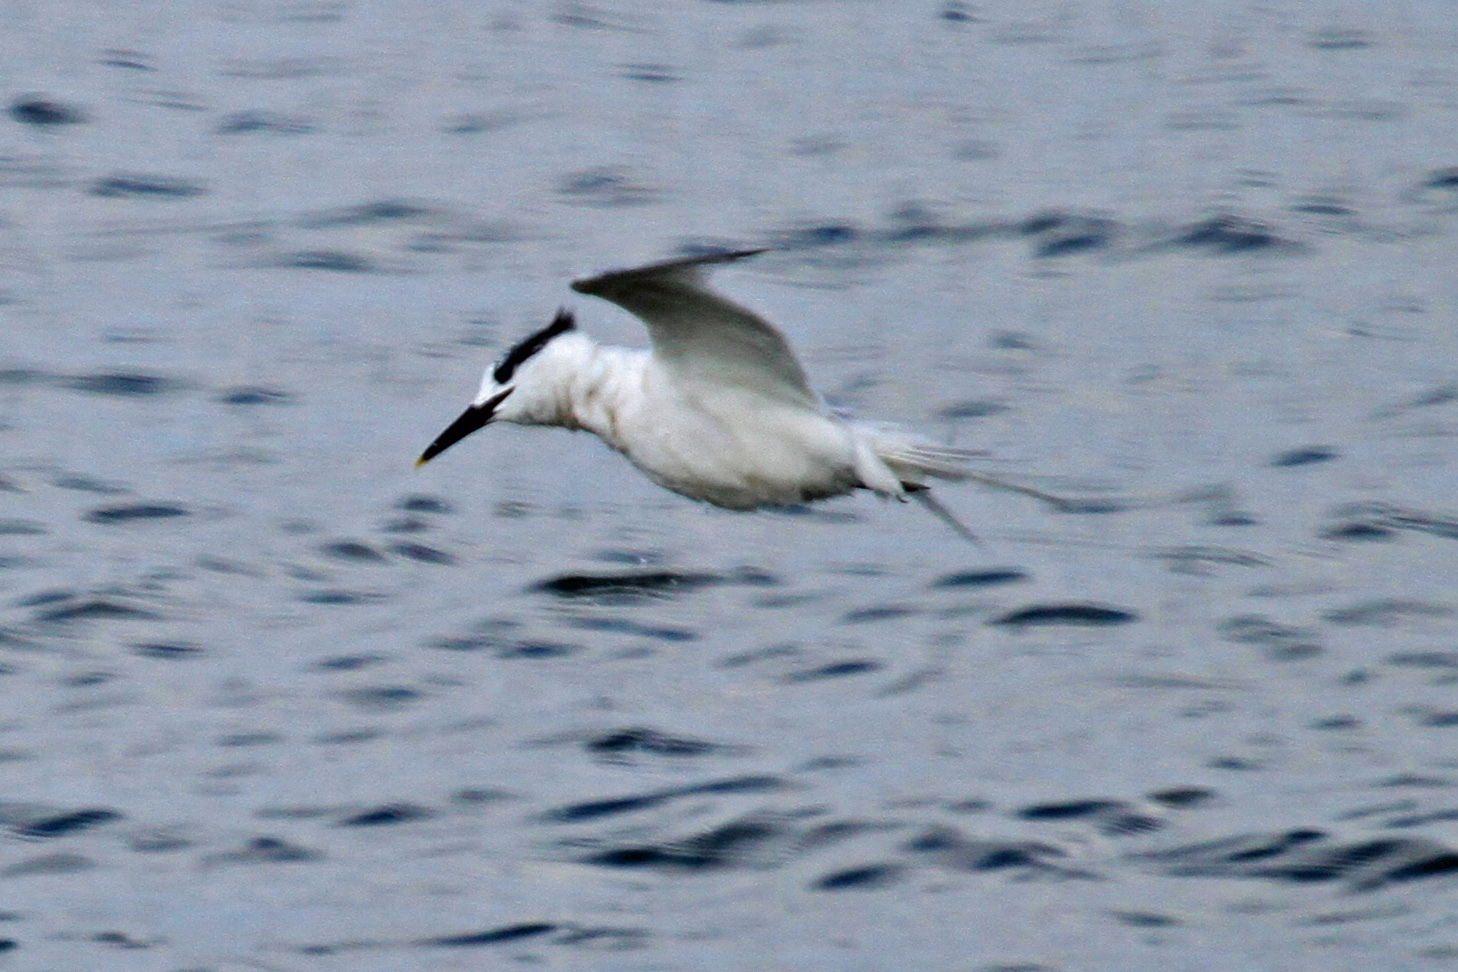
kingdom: Animalia
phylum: Chordata
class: Aves
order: Charadriiformes
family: Laridae
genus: Thalasseus
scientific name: Thalasseus sandvicensis
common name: Sandwich tern
